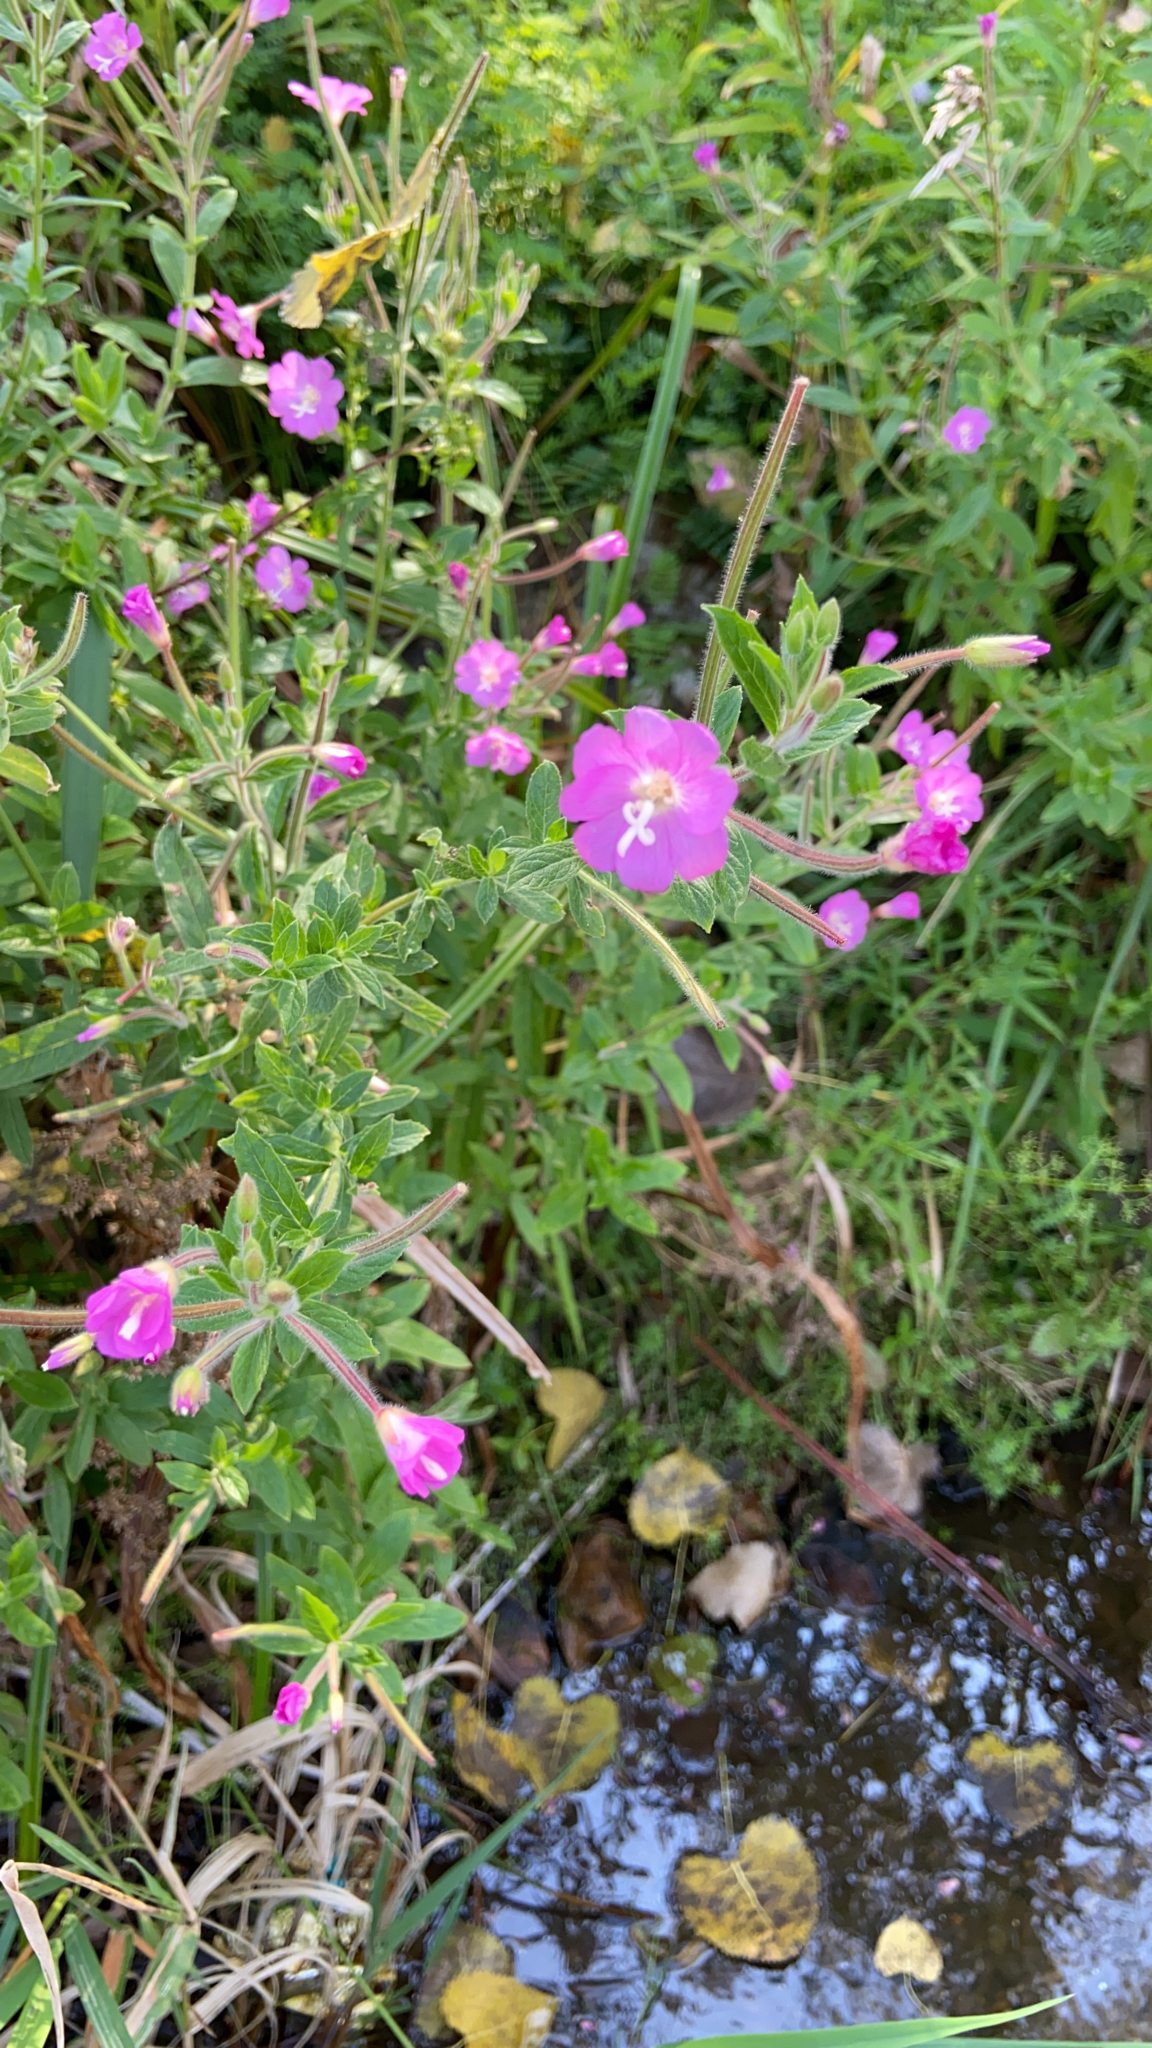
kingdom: Plantae
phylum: Tracheophyta
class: Magnoliopsida
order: Myrtales
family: Onagraceae
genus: Epilobium
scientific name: Epilobium hirsutum
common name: Great willowherb
